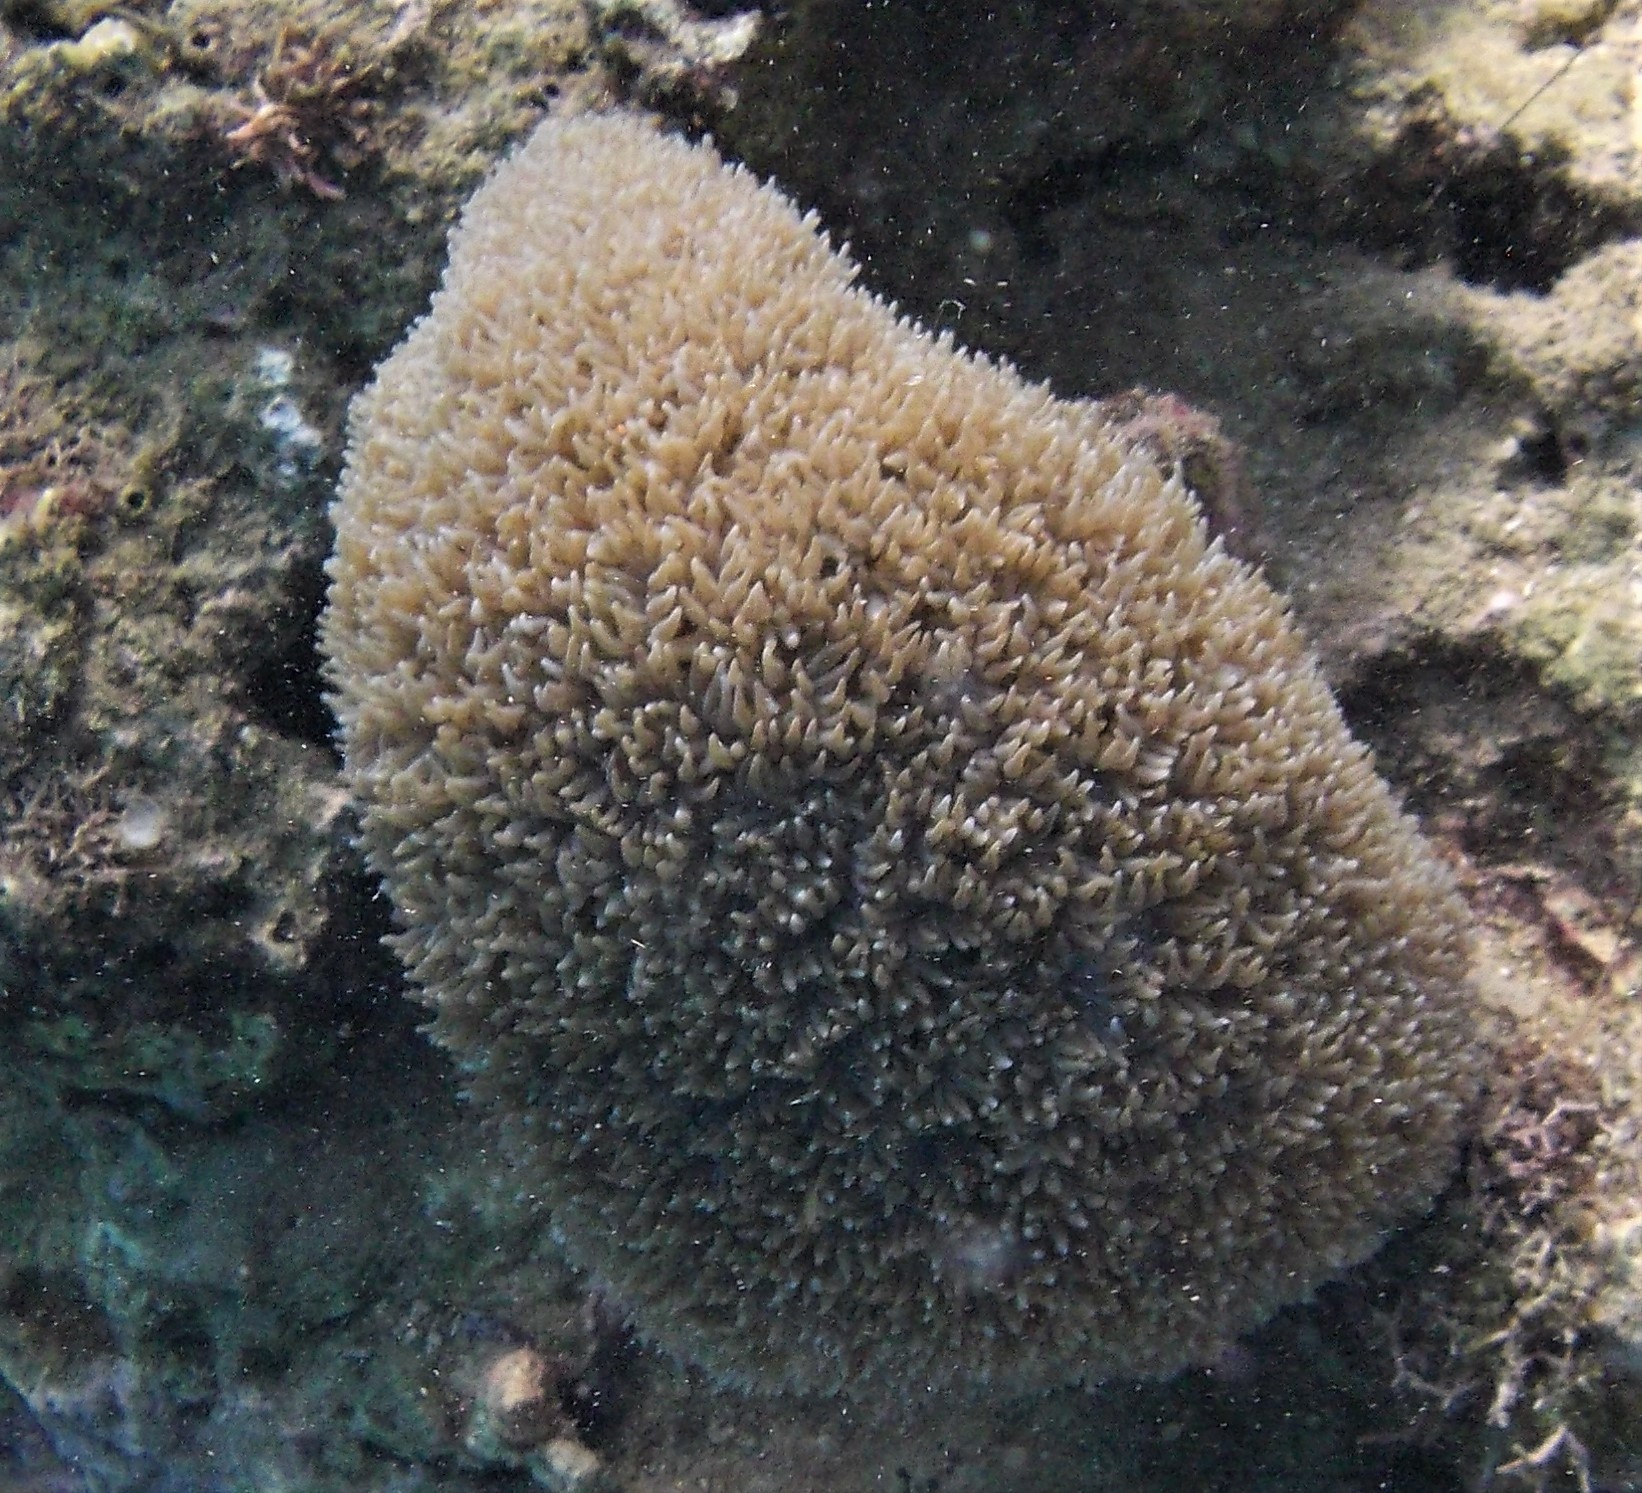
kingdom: Animalia
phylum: Cnidaria
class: Anthozoa
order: Scleractinia
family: Plerogyridae
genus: Physogyra
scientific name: Physogyra lichtensteini
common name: Tipped bubblegum coral
